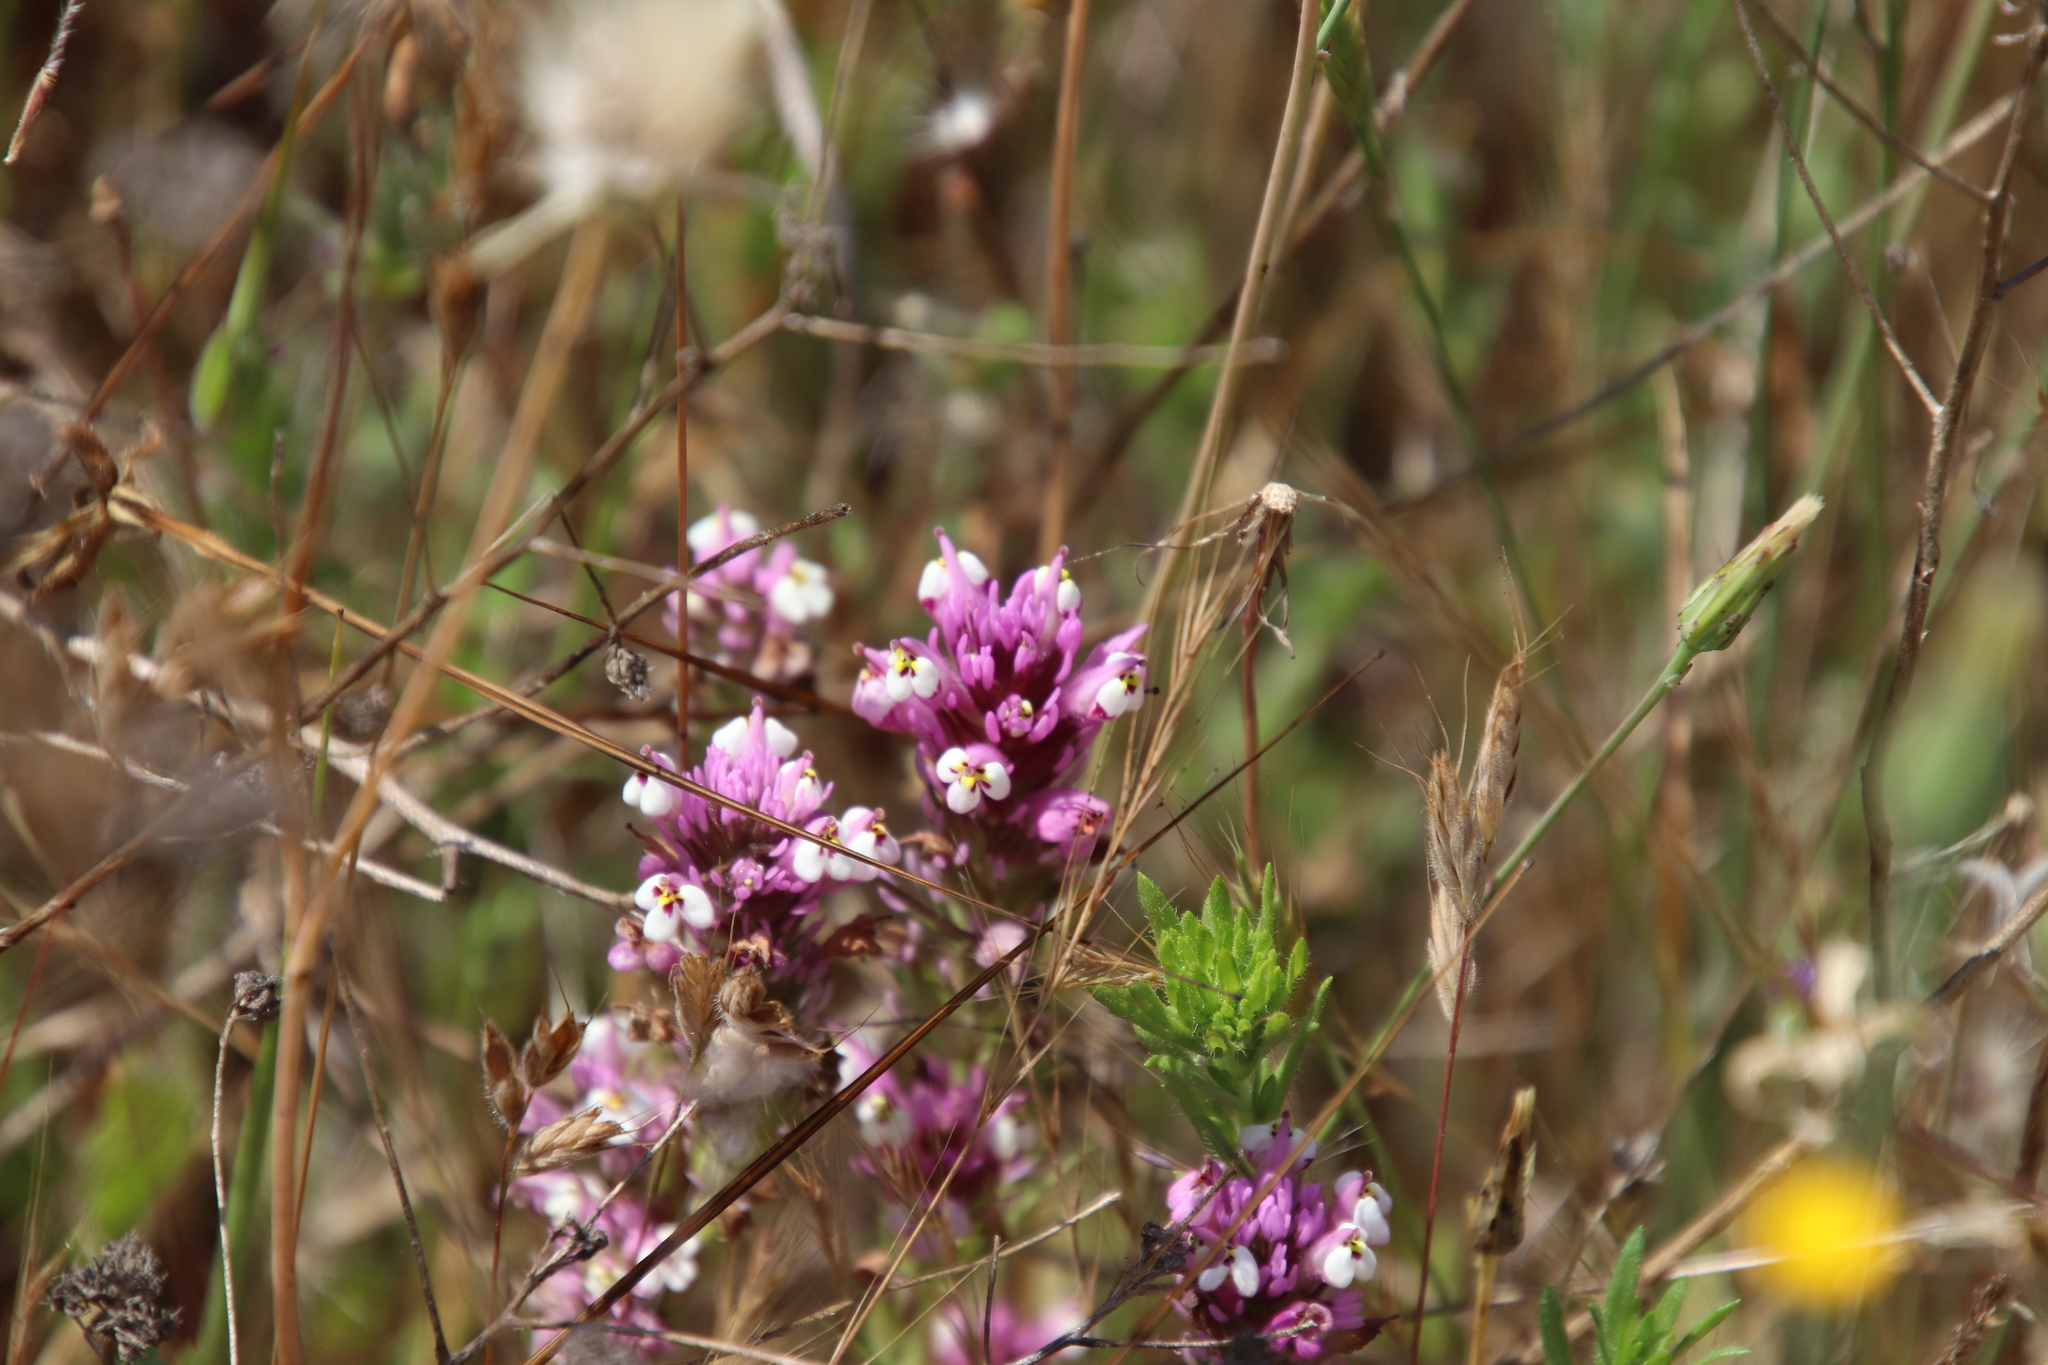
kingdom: Plantae
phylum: Tracheophyta
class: Magnoliopsida
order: Lamiales
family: Orobanchaceae
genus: Castilleja
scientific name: Castilleja densiflora
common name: Dense-flower indian paintbrush
